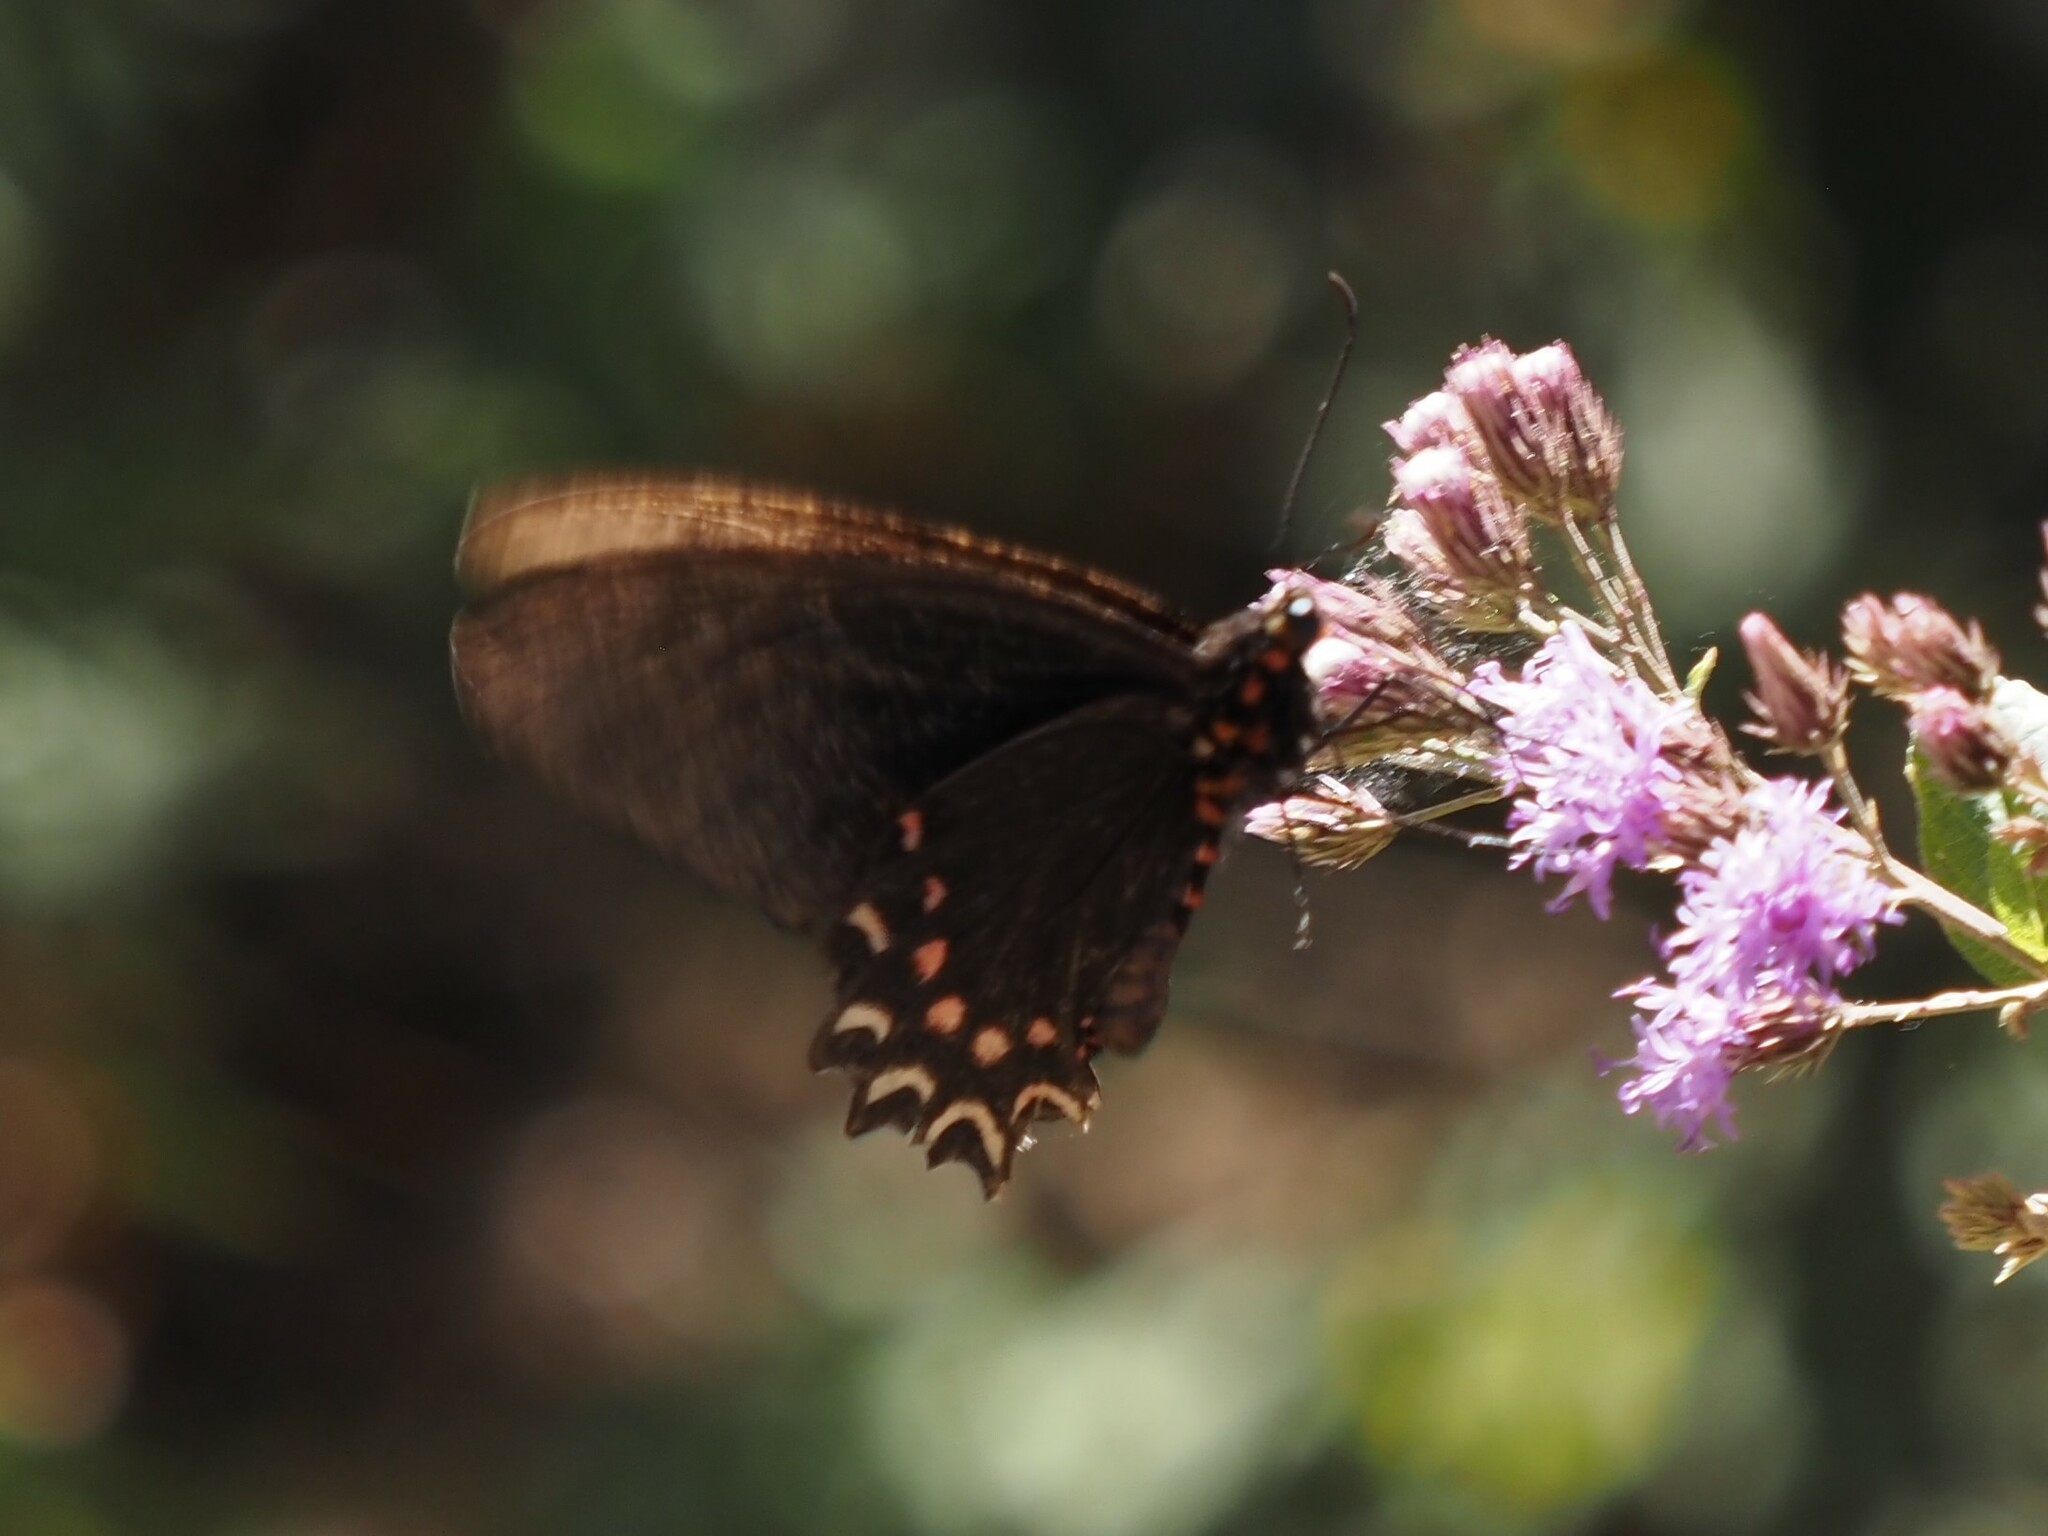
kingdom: Animalia
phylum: Arthropoda
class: Insecta
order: Lepidoptera
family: Papilionidae
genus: Parides
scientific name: Parides photinus
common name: Pink-spotted cattleheart
